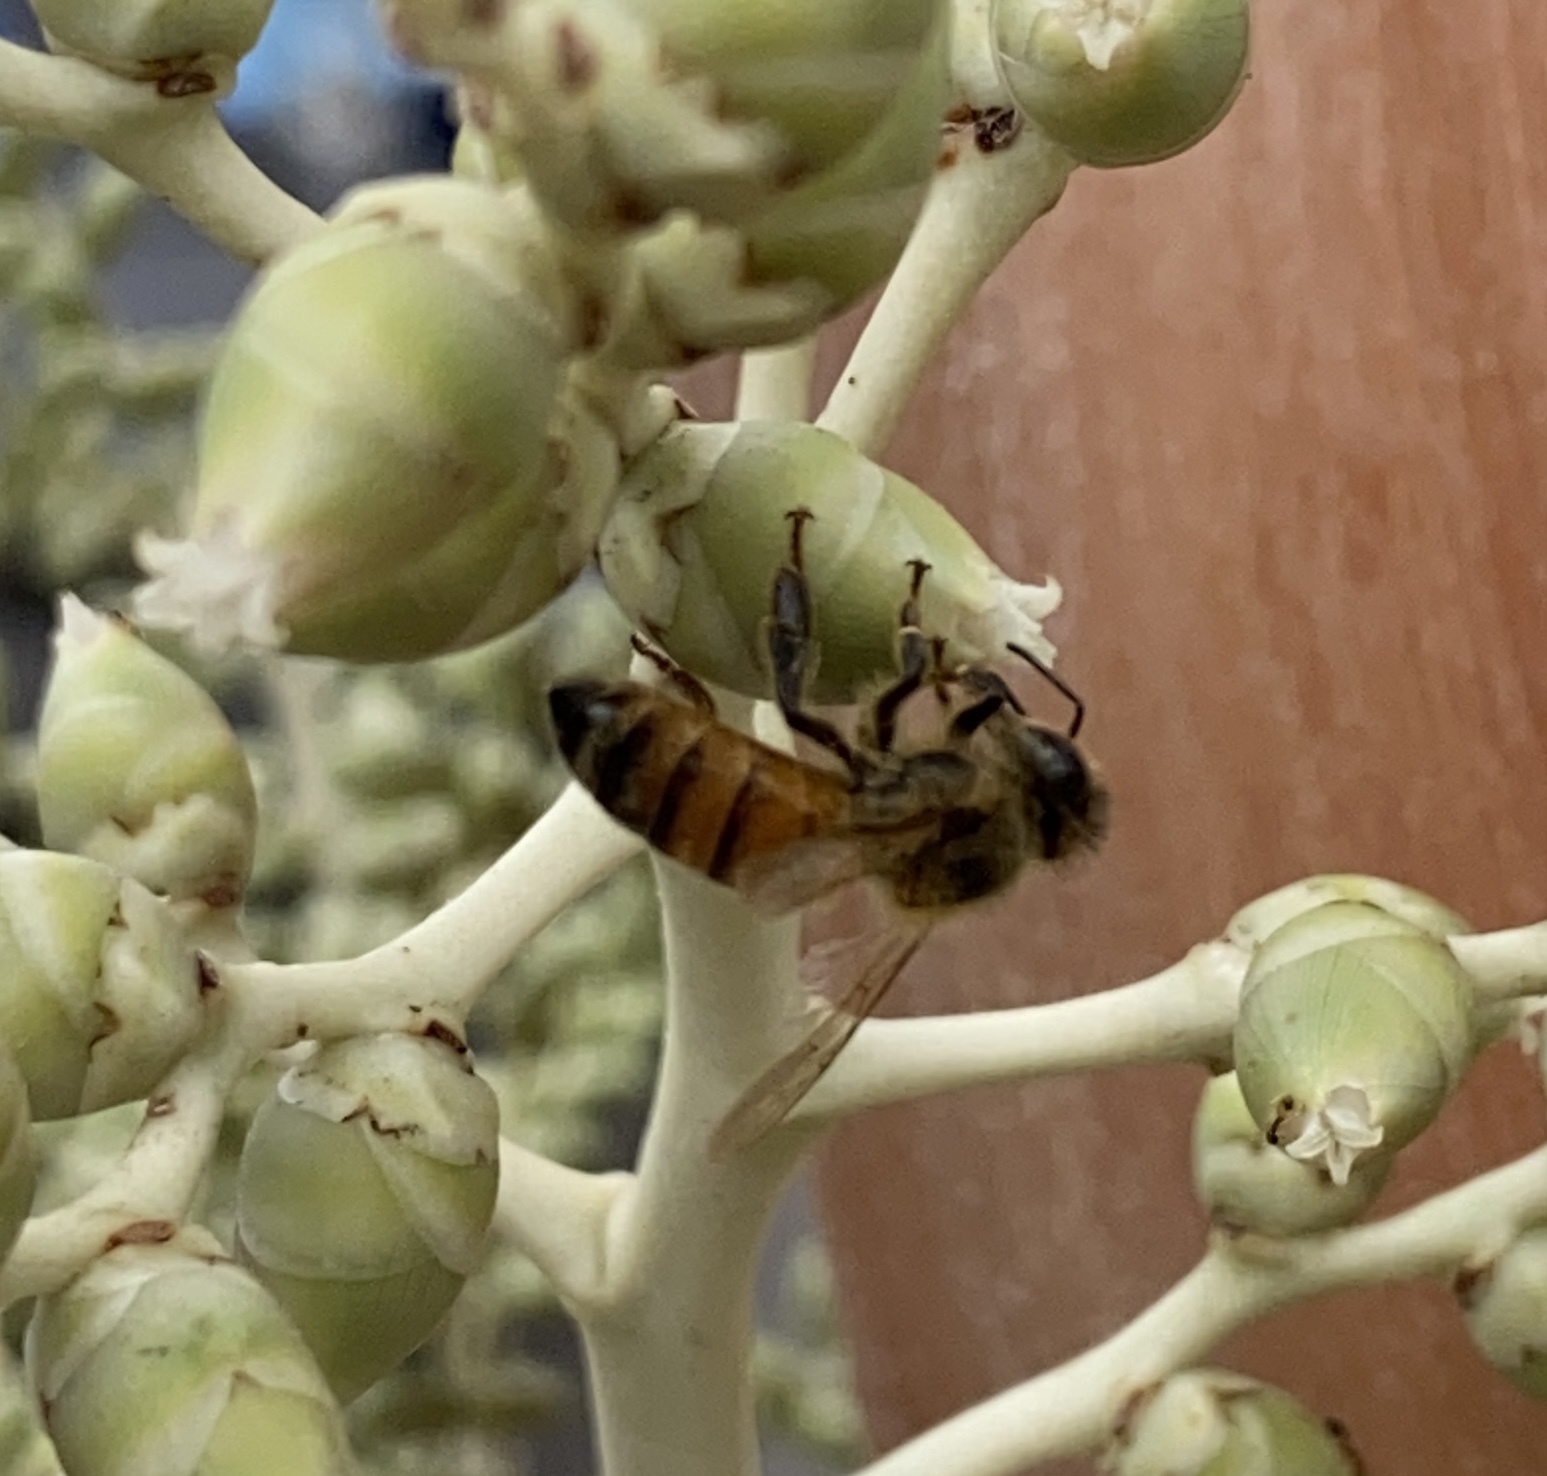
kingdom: Animalia
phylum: Arthropoda
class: Insecta
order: Hymenoptera
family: Apidae
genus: Apis
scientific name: Apis mellifera
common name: Honey bee
